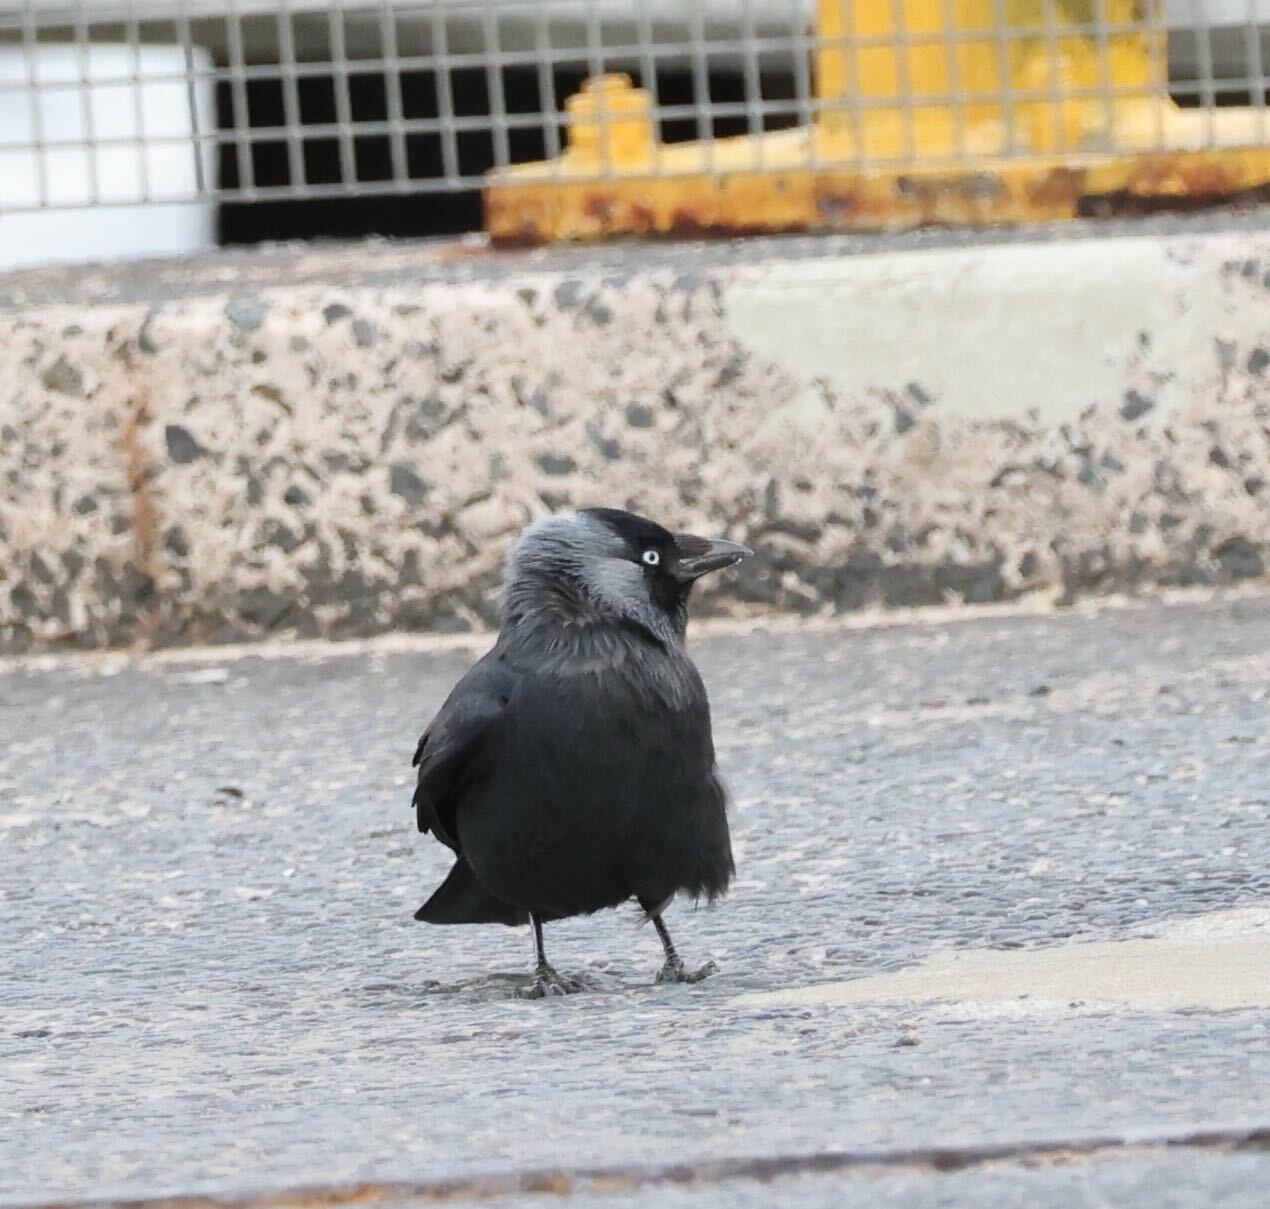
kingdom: Animalia
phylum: Chordata
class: Aves
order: Passeriformes
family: Corvidae
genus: Coloeus
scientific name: Coloeus monedula
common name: Western jackdaw
